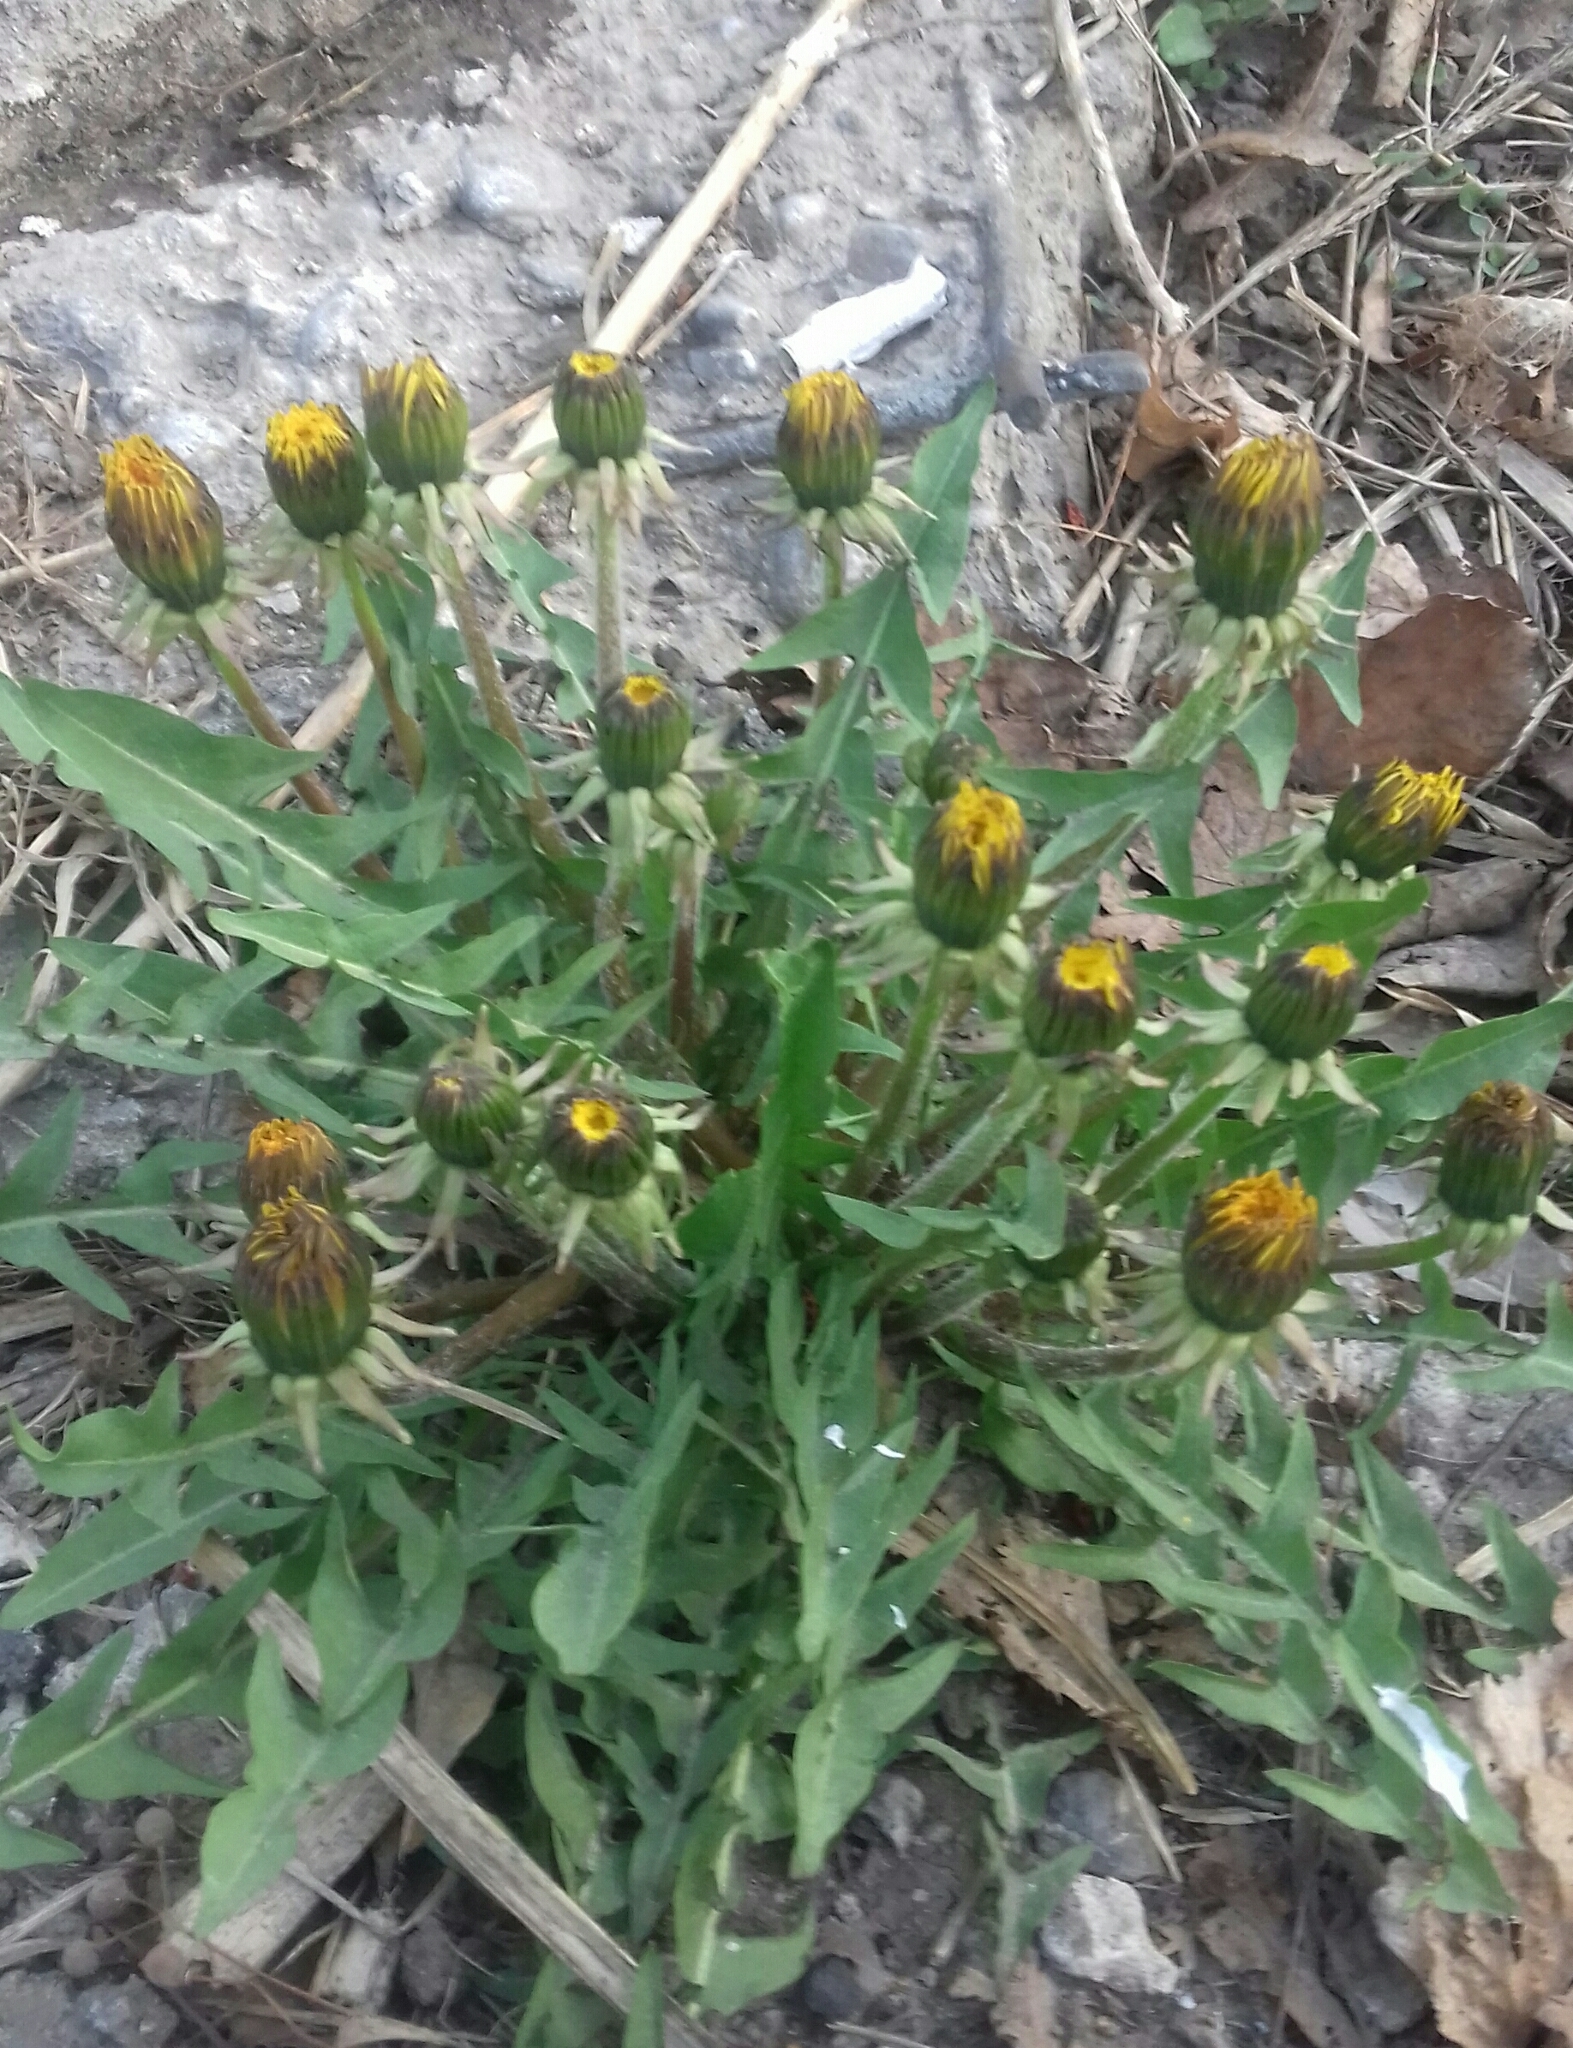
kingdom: Plantae
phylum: Tracheophyta
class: Magnoliopsida
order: Asterales
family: Asteraceae
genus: Taraxacum
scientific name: Taraxacum officinale
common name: Common dandelion
